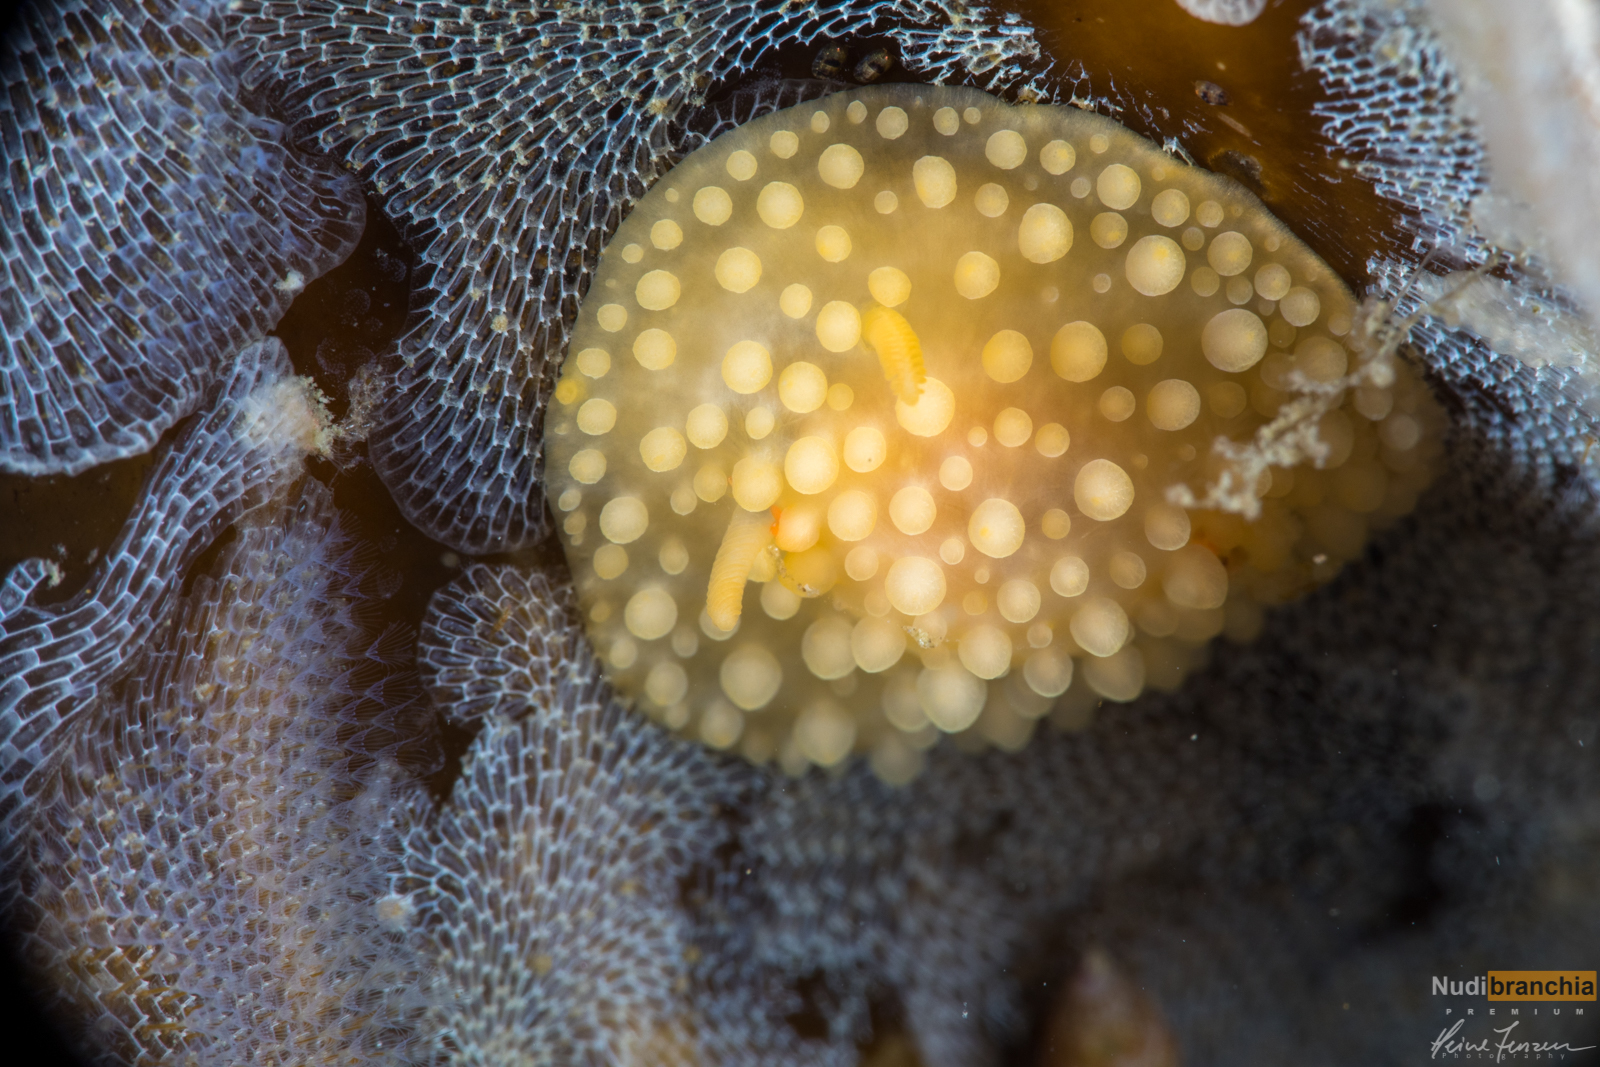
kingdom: Animalia
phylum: Mollusca
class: Gastropoda
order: Nudibranchia
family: Onchidorididae
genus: Adalaria
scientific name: Adalaria loveni
